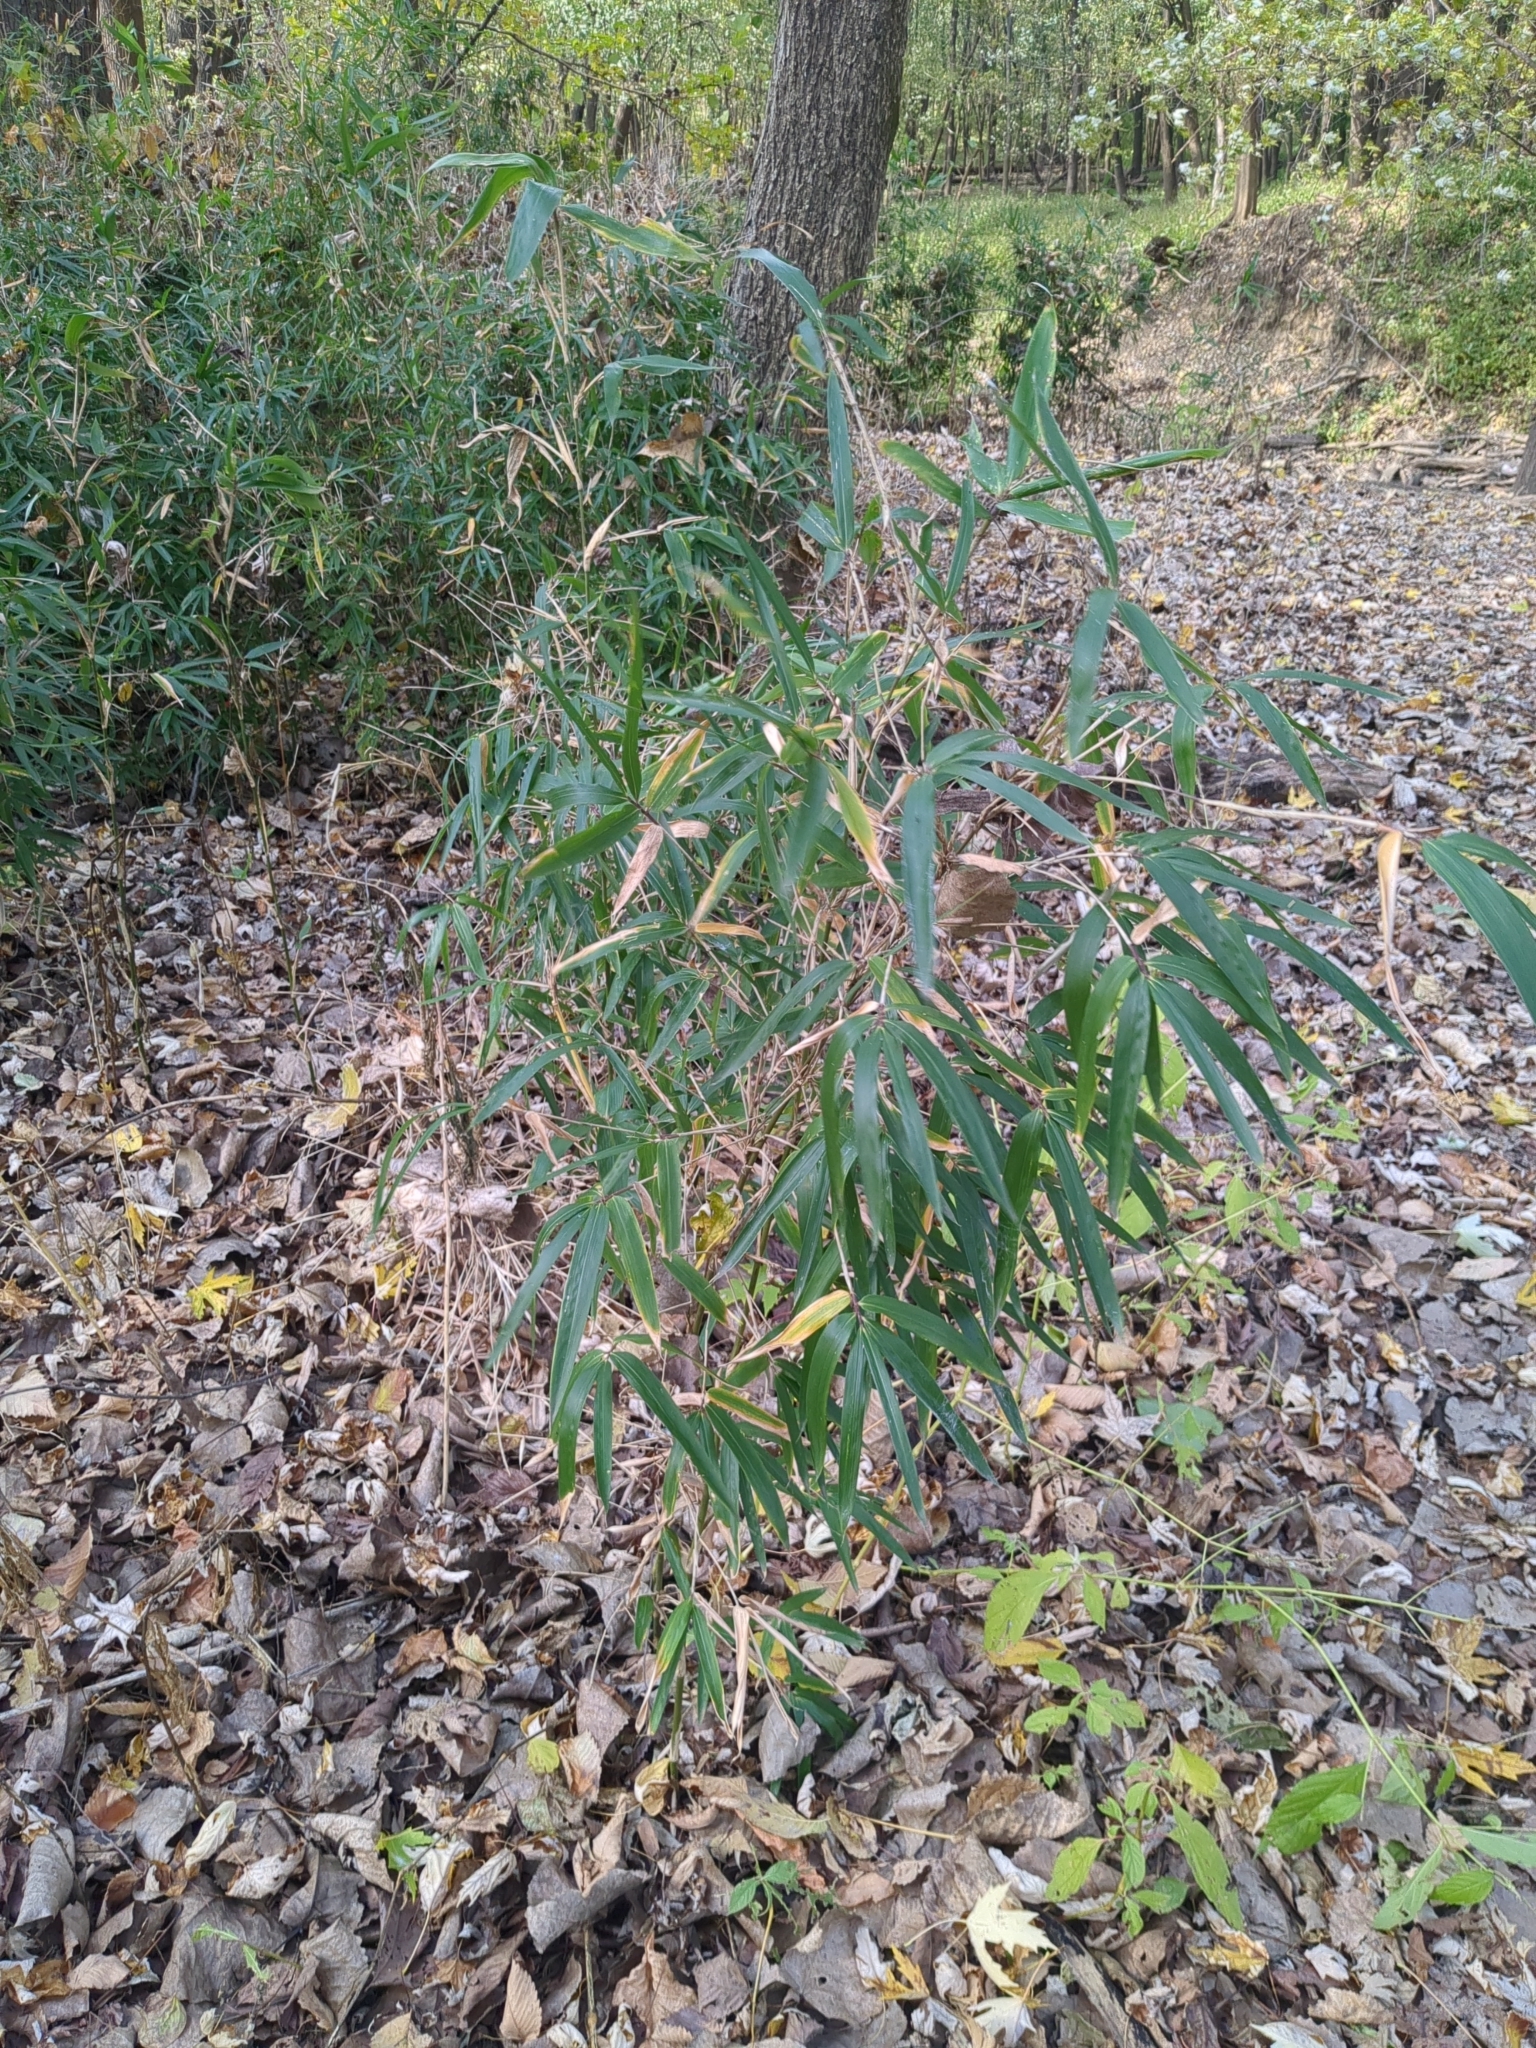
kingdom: Plantae
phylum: Tracheophyta
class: Liliopsida
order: Poales
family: Poaceae
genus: Arundinaria
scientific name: Arundinaria gigantea
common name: Giant cane
